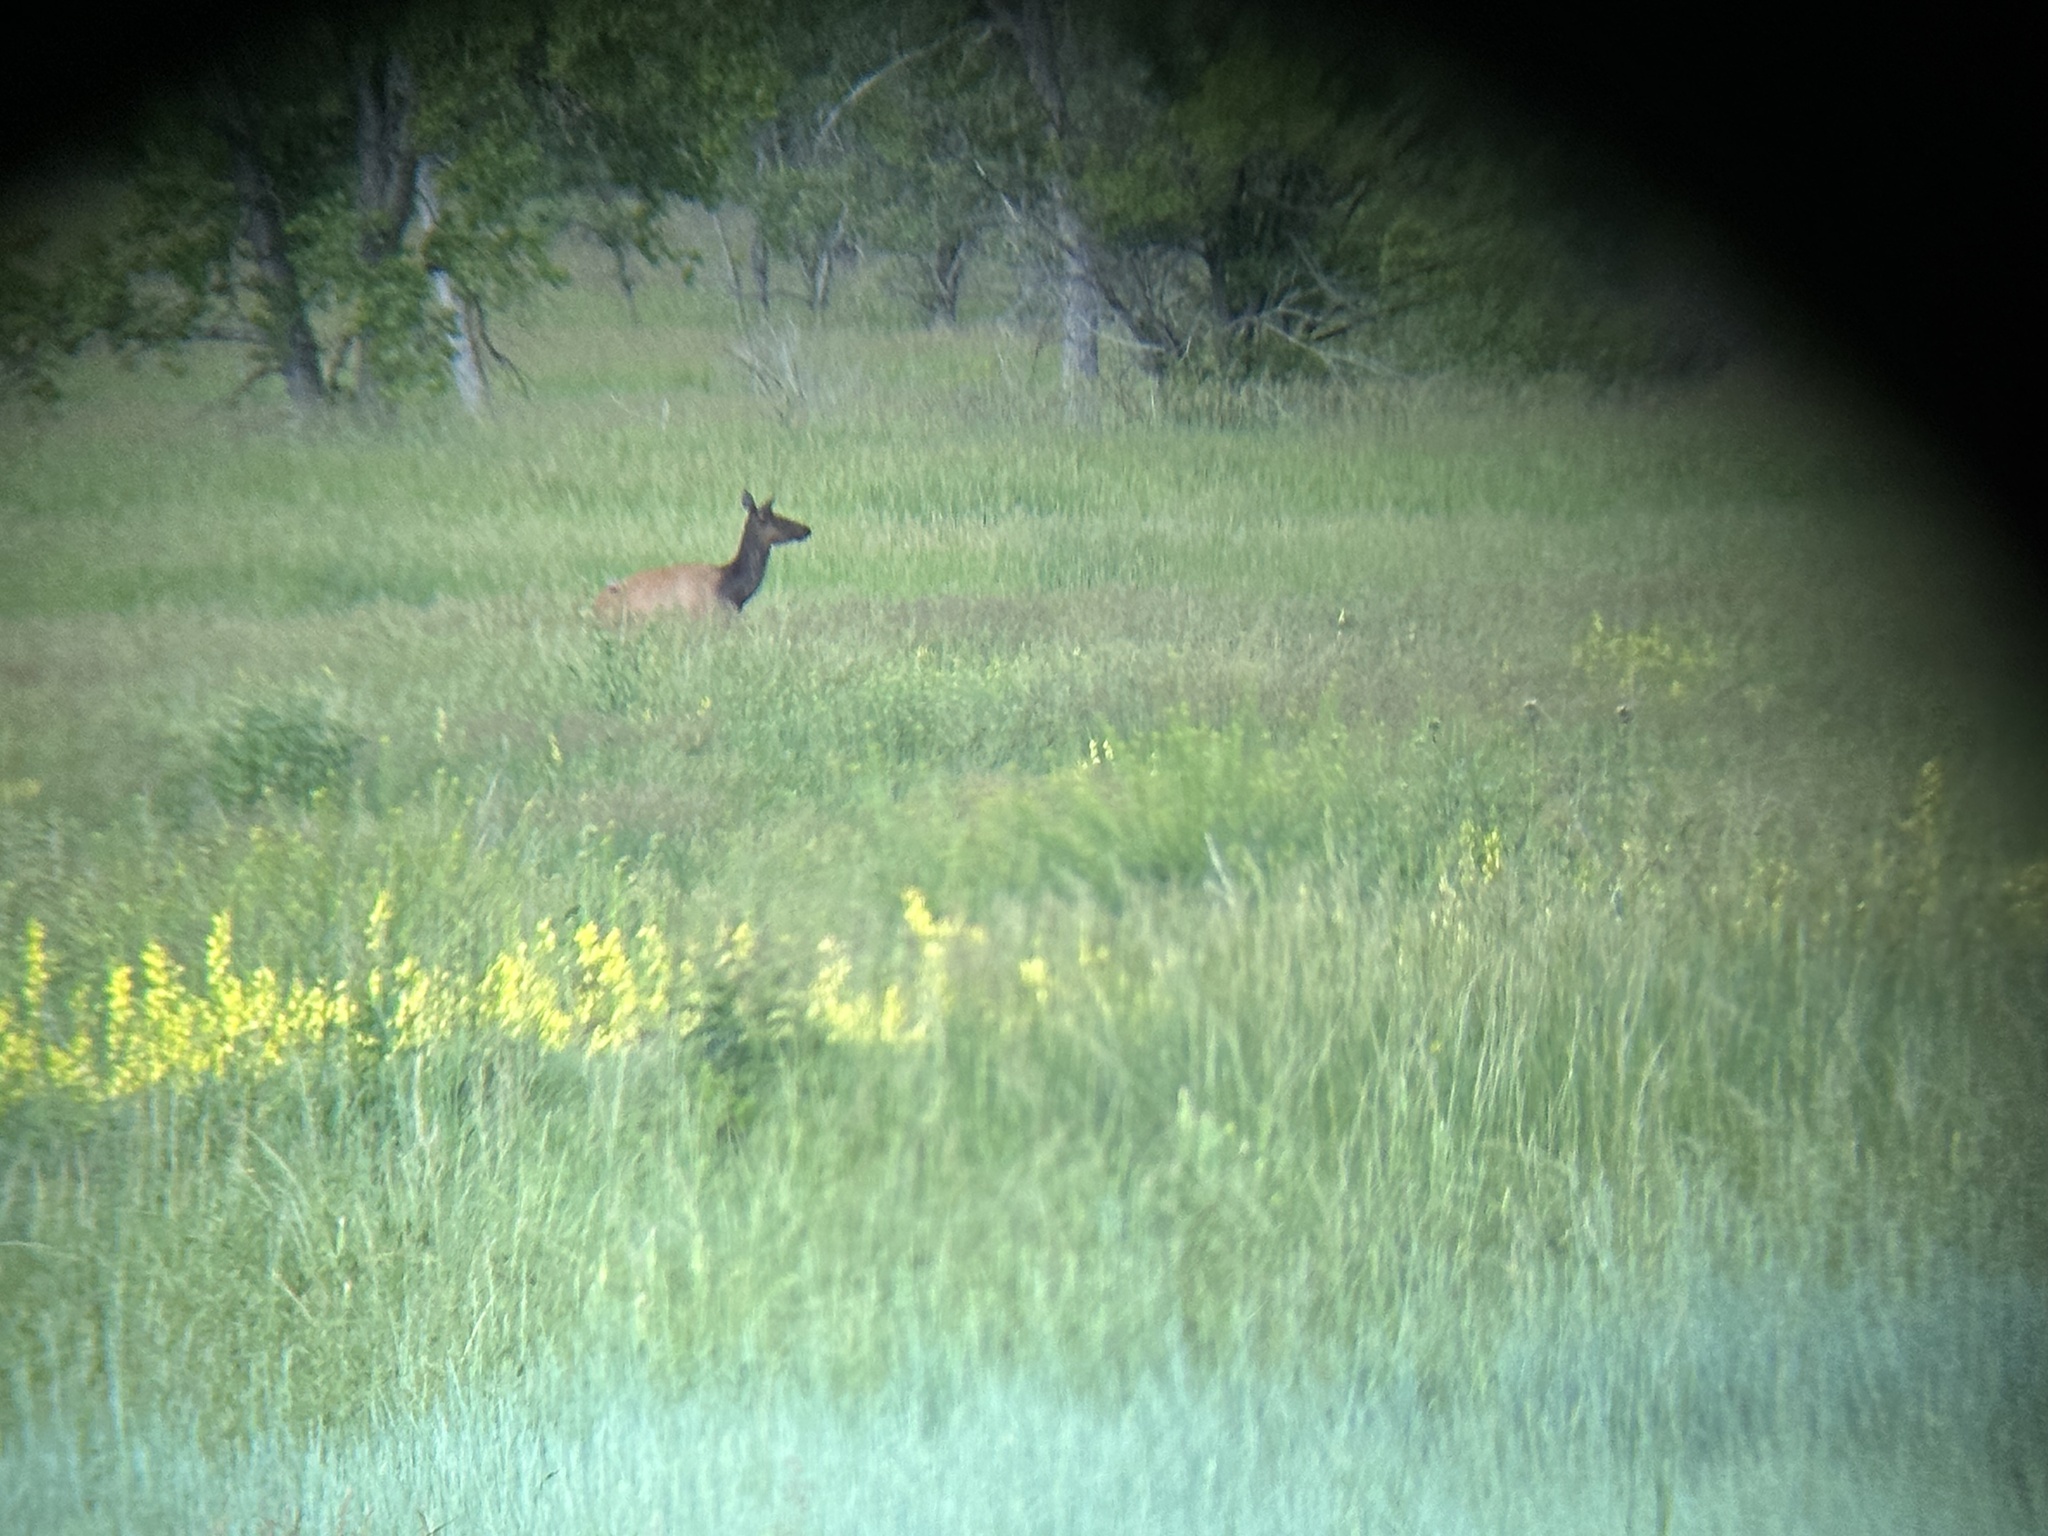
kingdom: Animalia
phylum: Chordata
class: Mammalia
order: Artiodactyla
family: Cervidae
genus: Cervus
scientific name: Cervus elaphus
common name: Red deer
